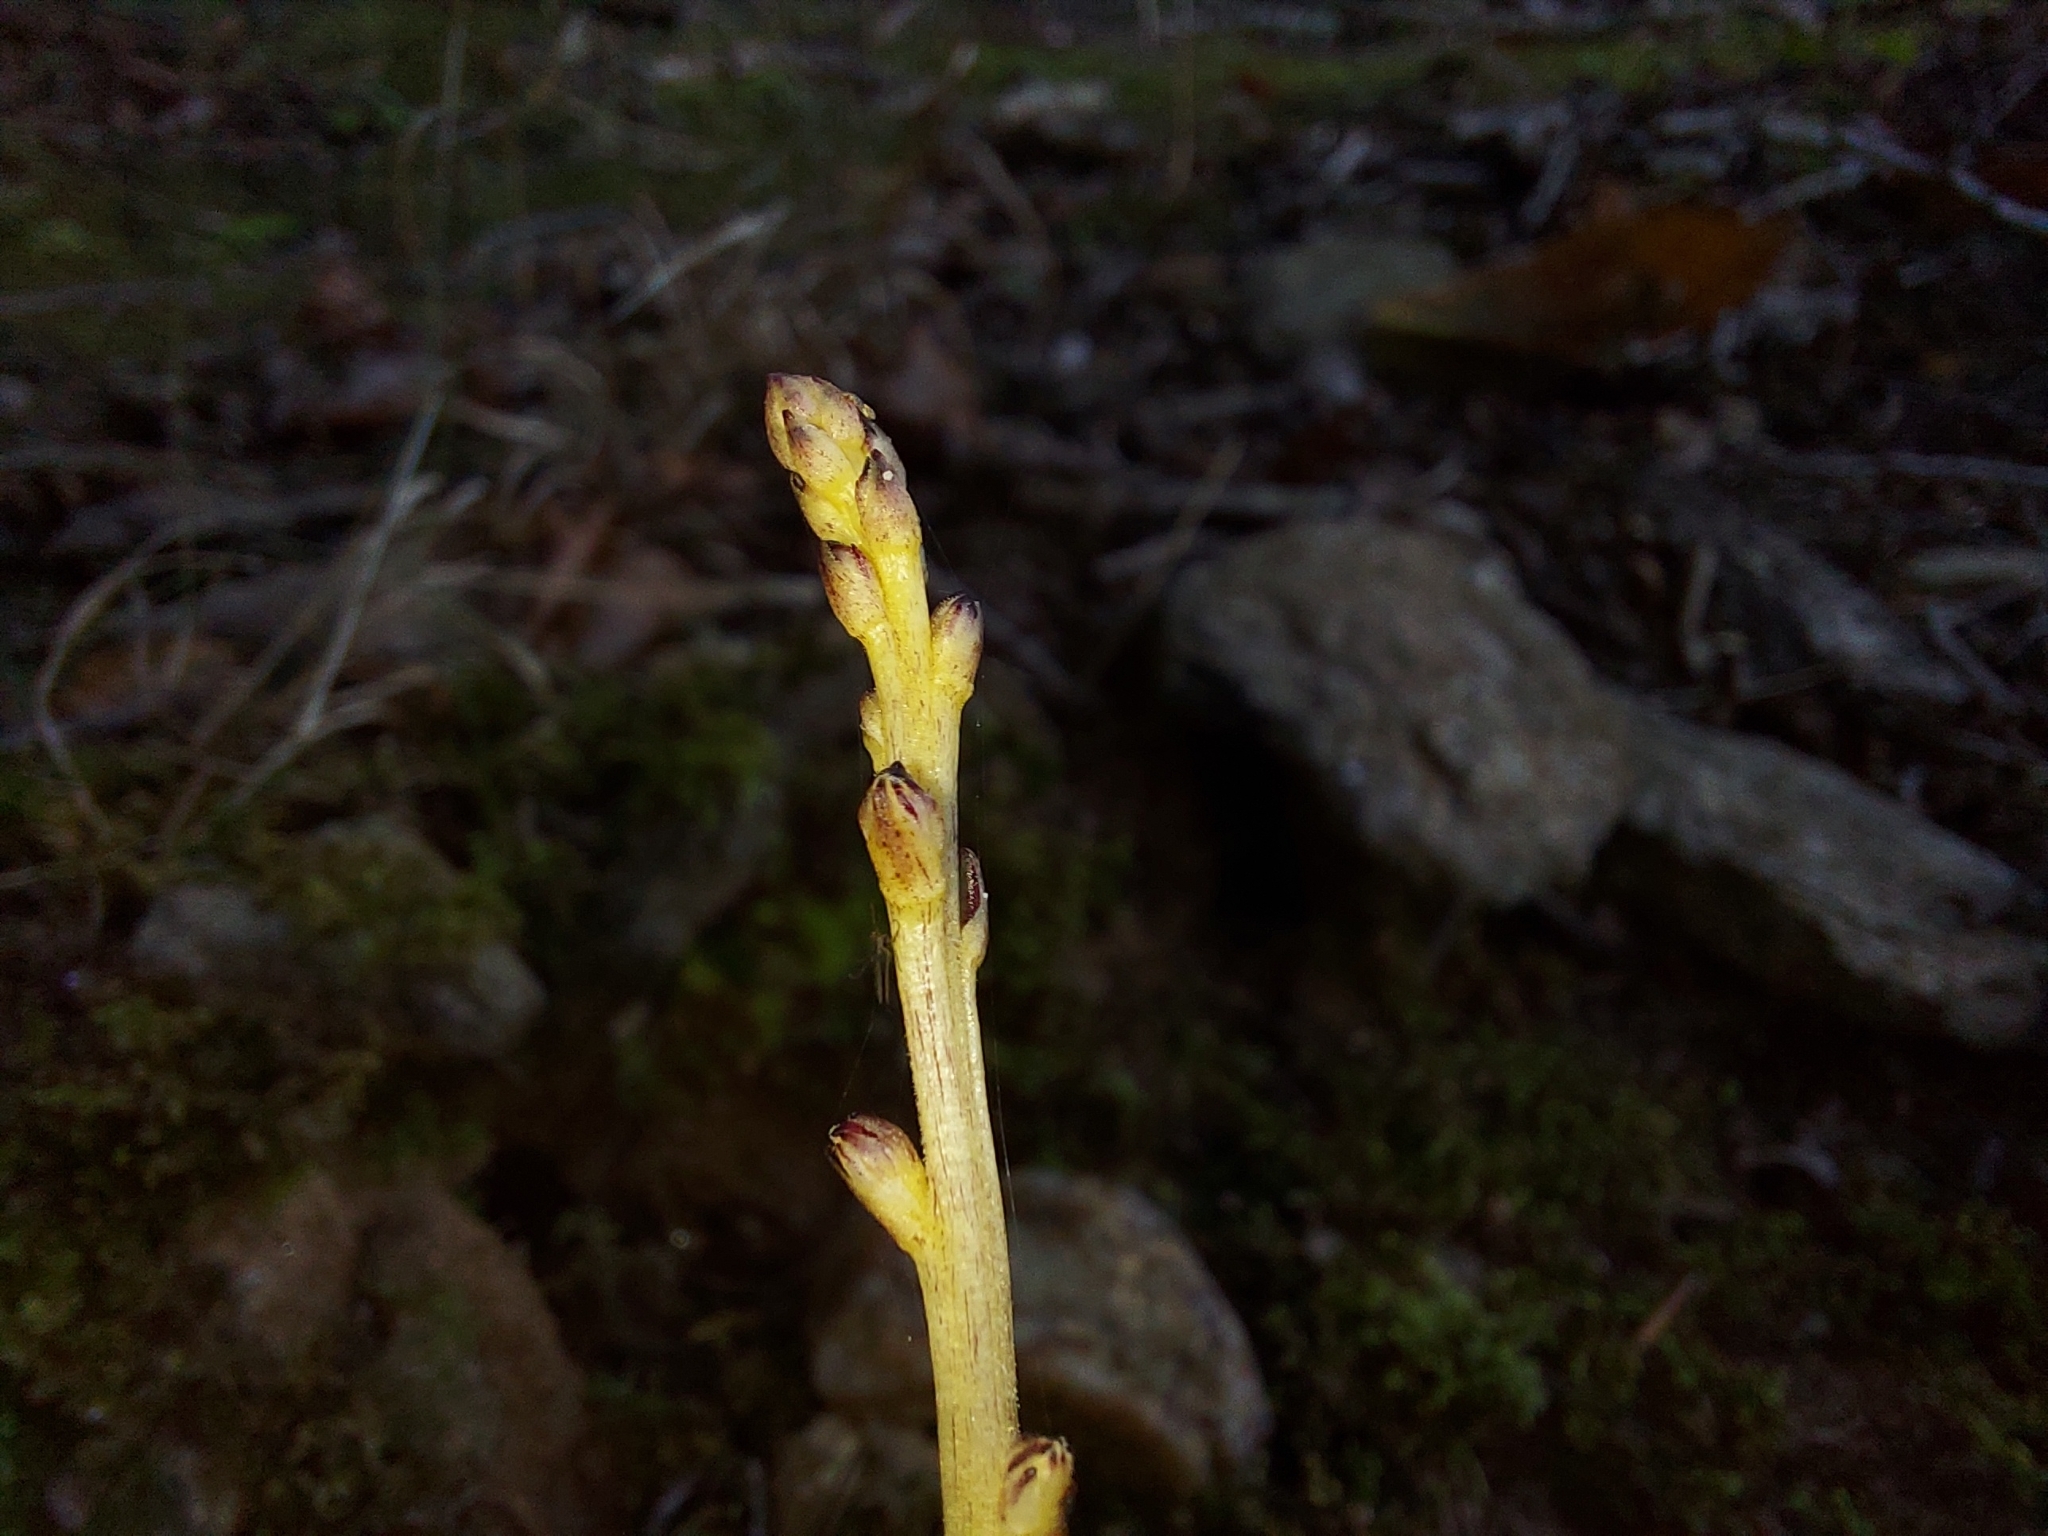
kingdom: Plantae
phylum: Tracheophyta
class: Magnoliopsida
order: Lamiales
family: Orobanchaceae
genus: Epifagus
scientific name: Epifagus virginiana
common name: Beechdrops
